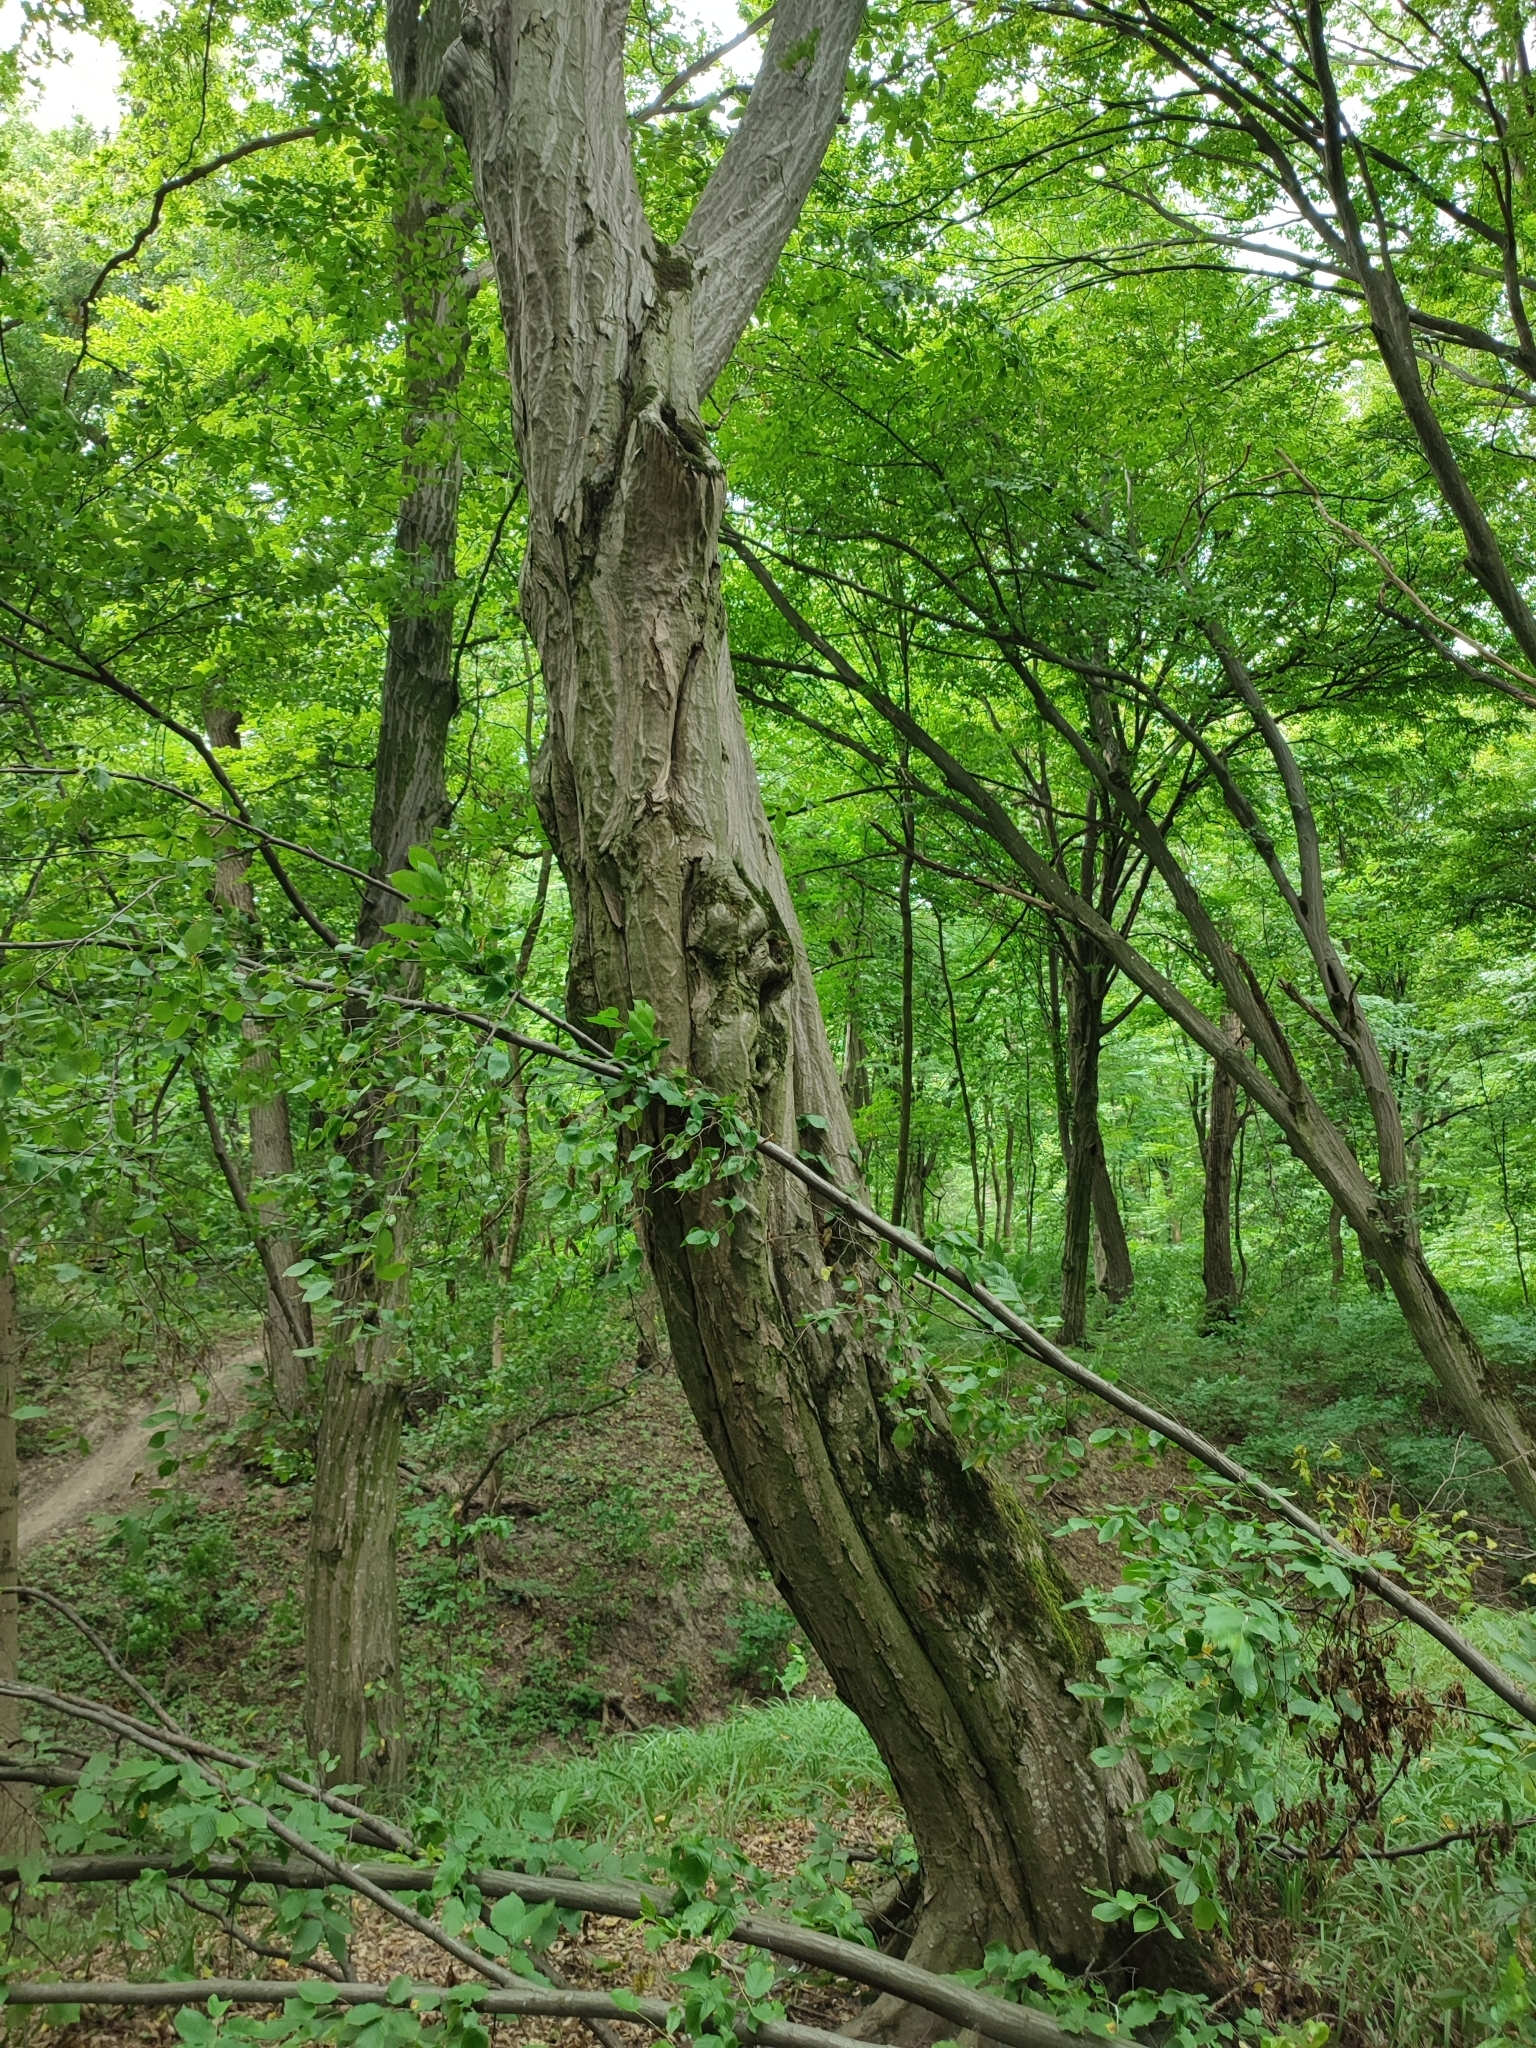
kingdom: Plantae
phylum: Tracheophyta
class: Magnoliopsida
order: Fagales
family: Betulaceae
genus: Carpinus
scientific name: Carpinus betulus
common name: Hornbeam
